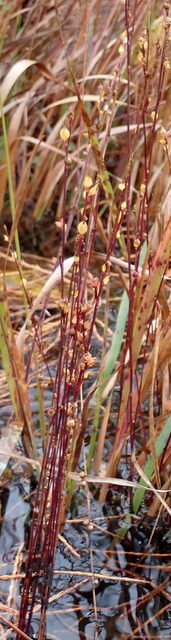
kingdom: Plantae
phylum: Tracheophyta
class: Magnoliopsida
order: Lamiales
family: Lentibulariaceae
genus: Utricularia
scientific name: Utricularia juncea
